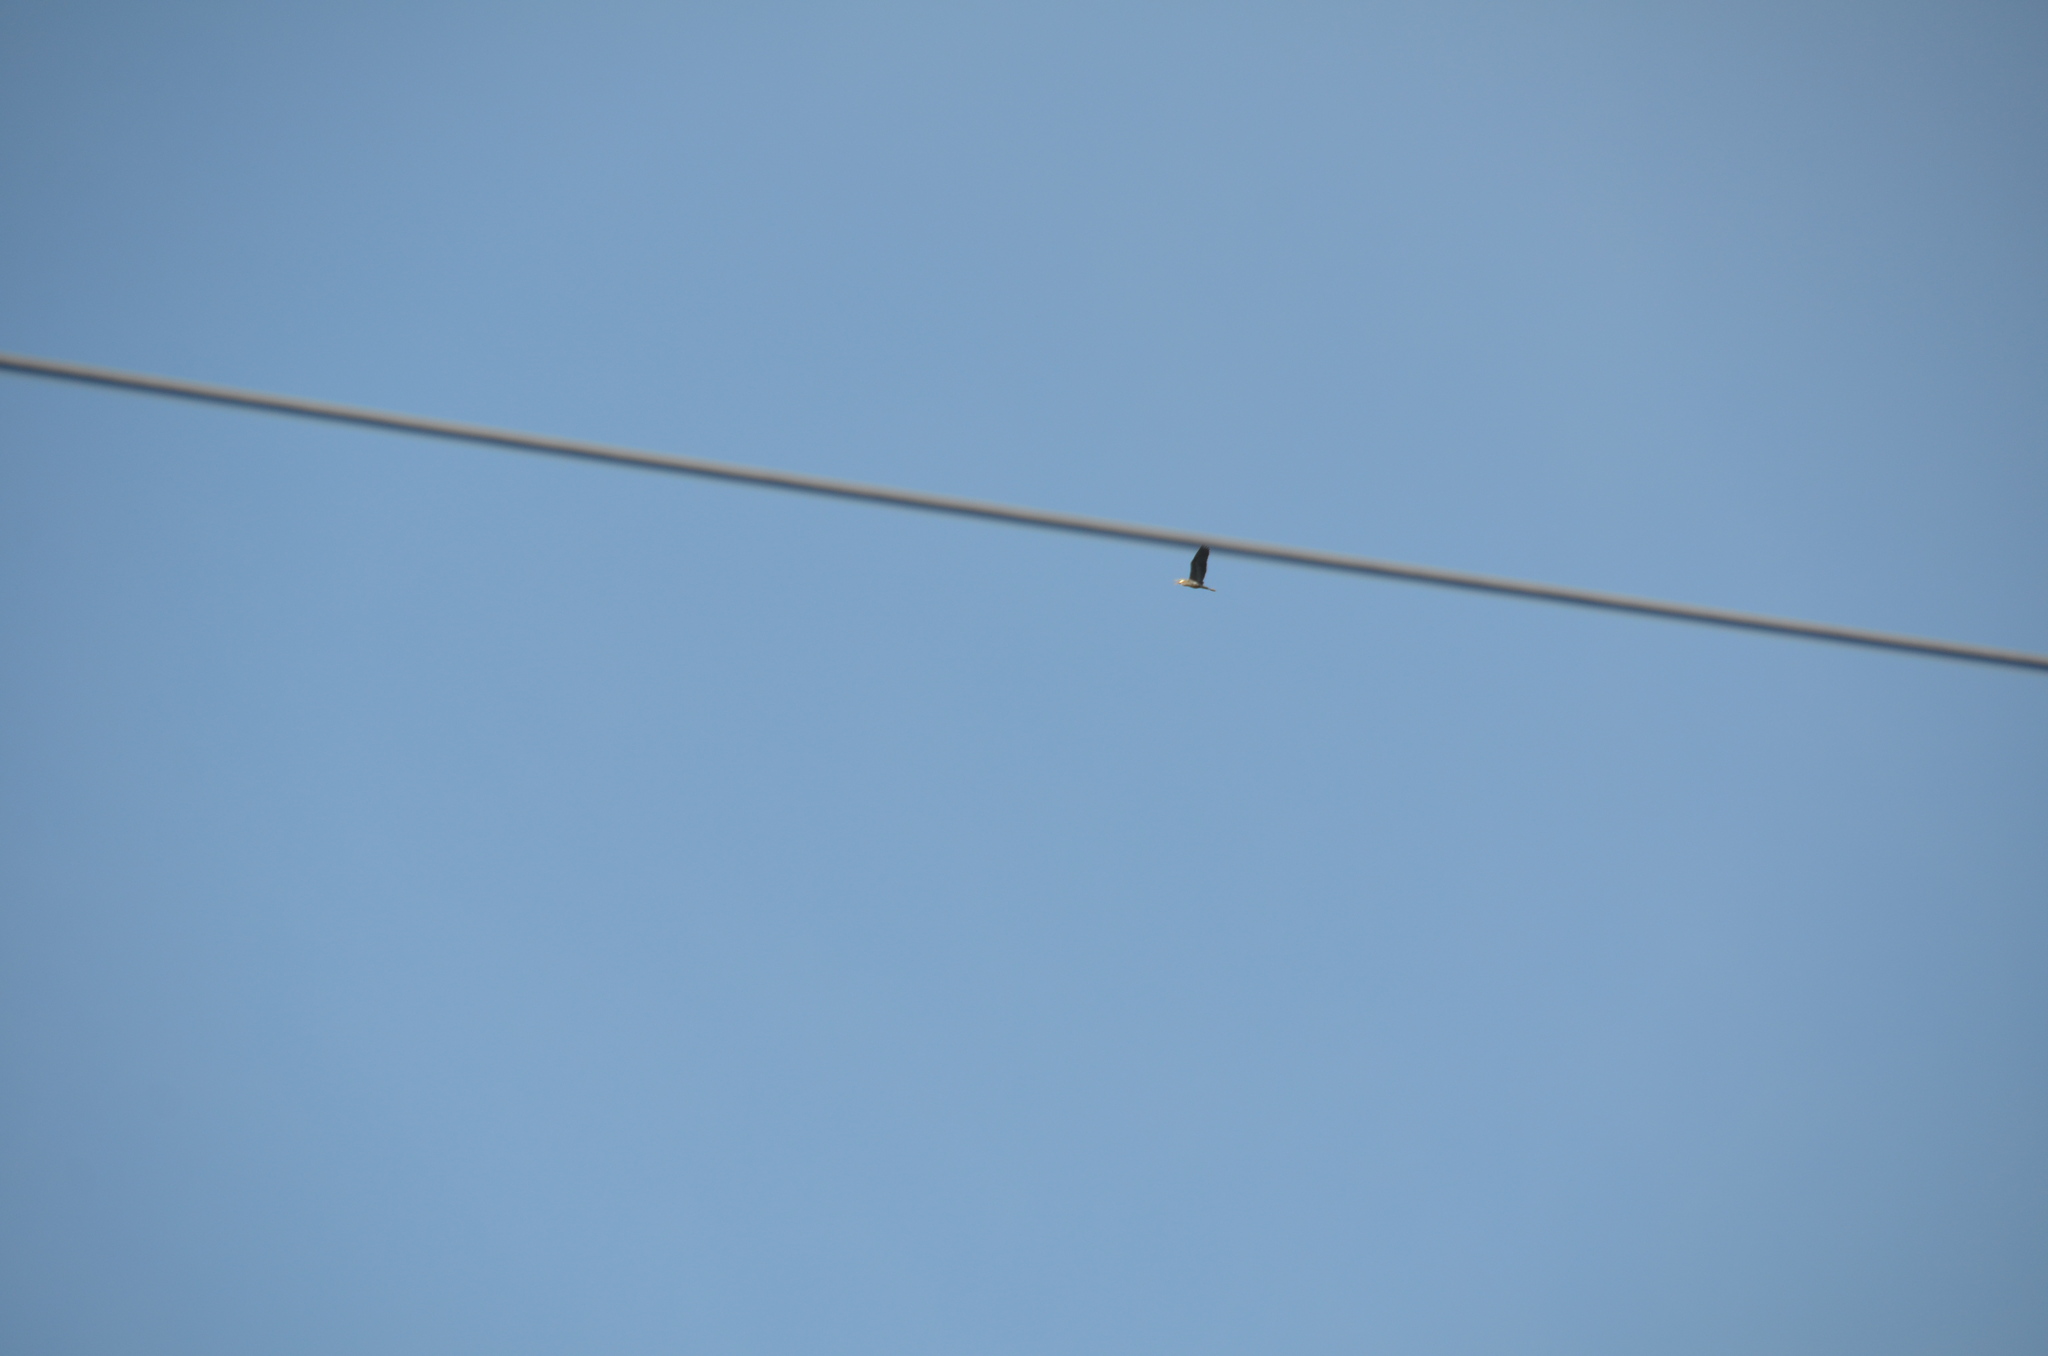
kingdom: Animalia
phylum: Chordata
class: Aves
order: Pelecaniformes
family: Ardeidae
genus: Ardea
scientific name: Ardea herodias
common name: Great blue heron
